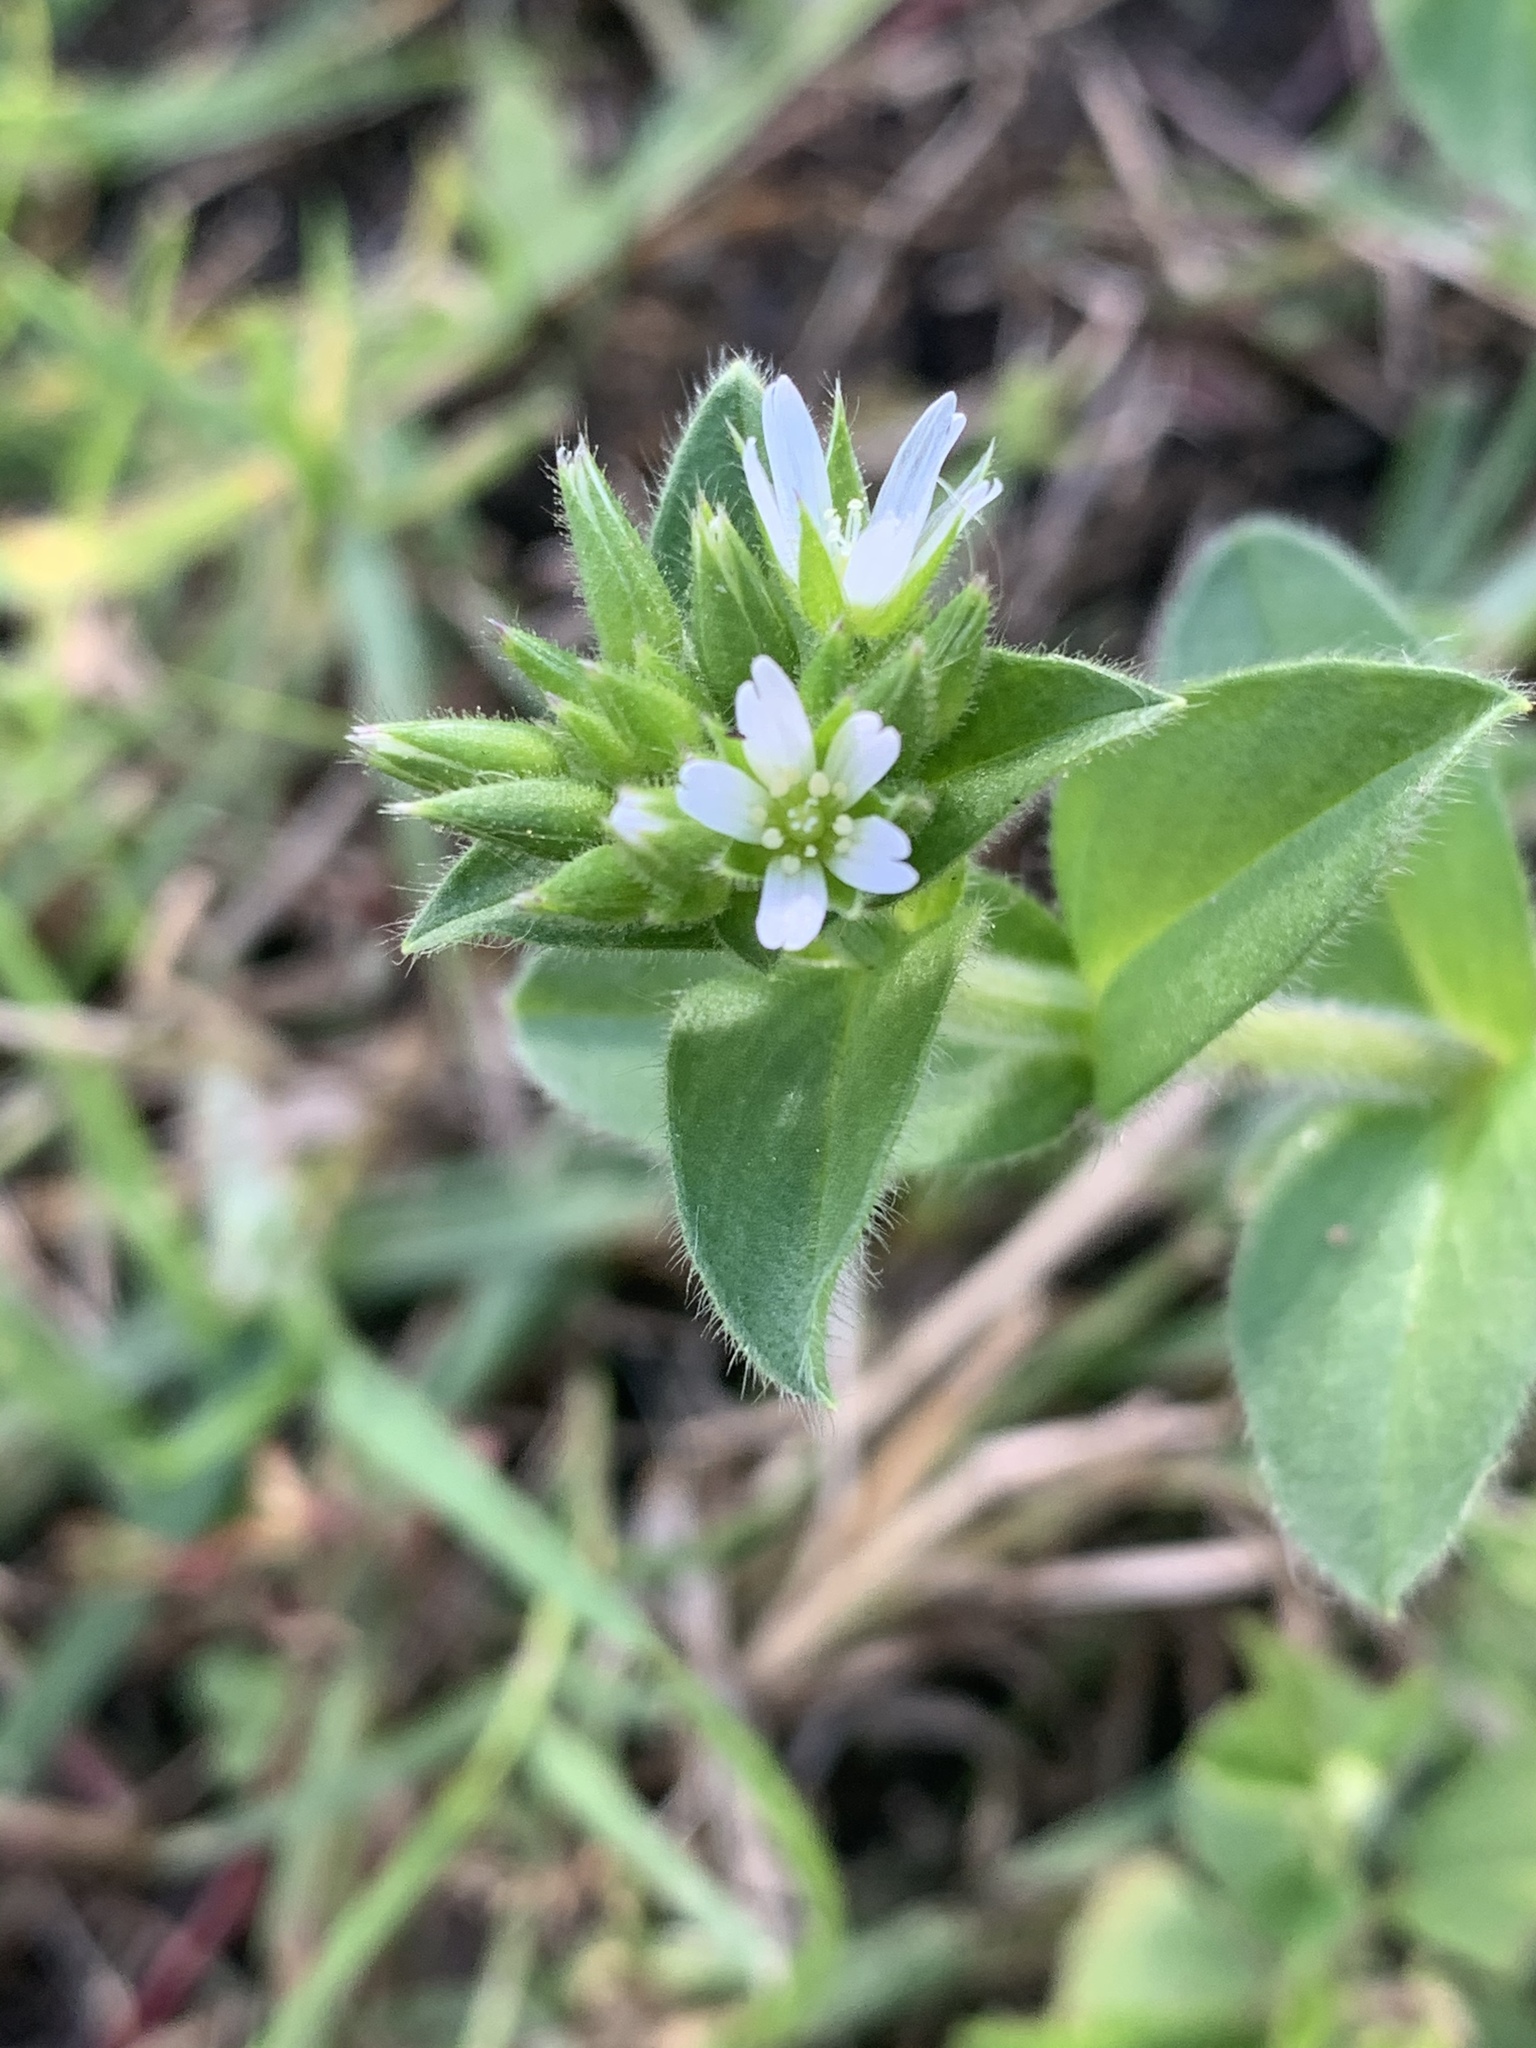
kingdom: Plantae
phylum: Tracheophyta
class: Magnoliopsida
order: Caryophyllales
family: Caryophyllaceae
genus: Cerastium
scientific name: Cerastium glomeratum
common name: Sticky chickweed
